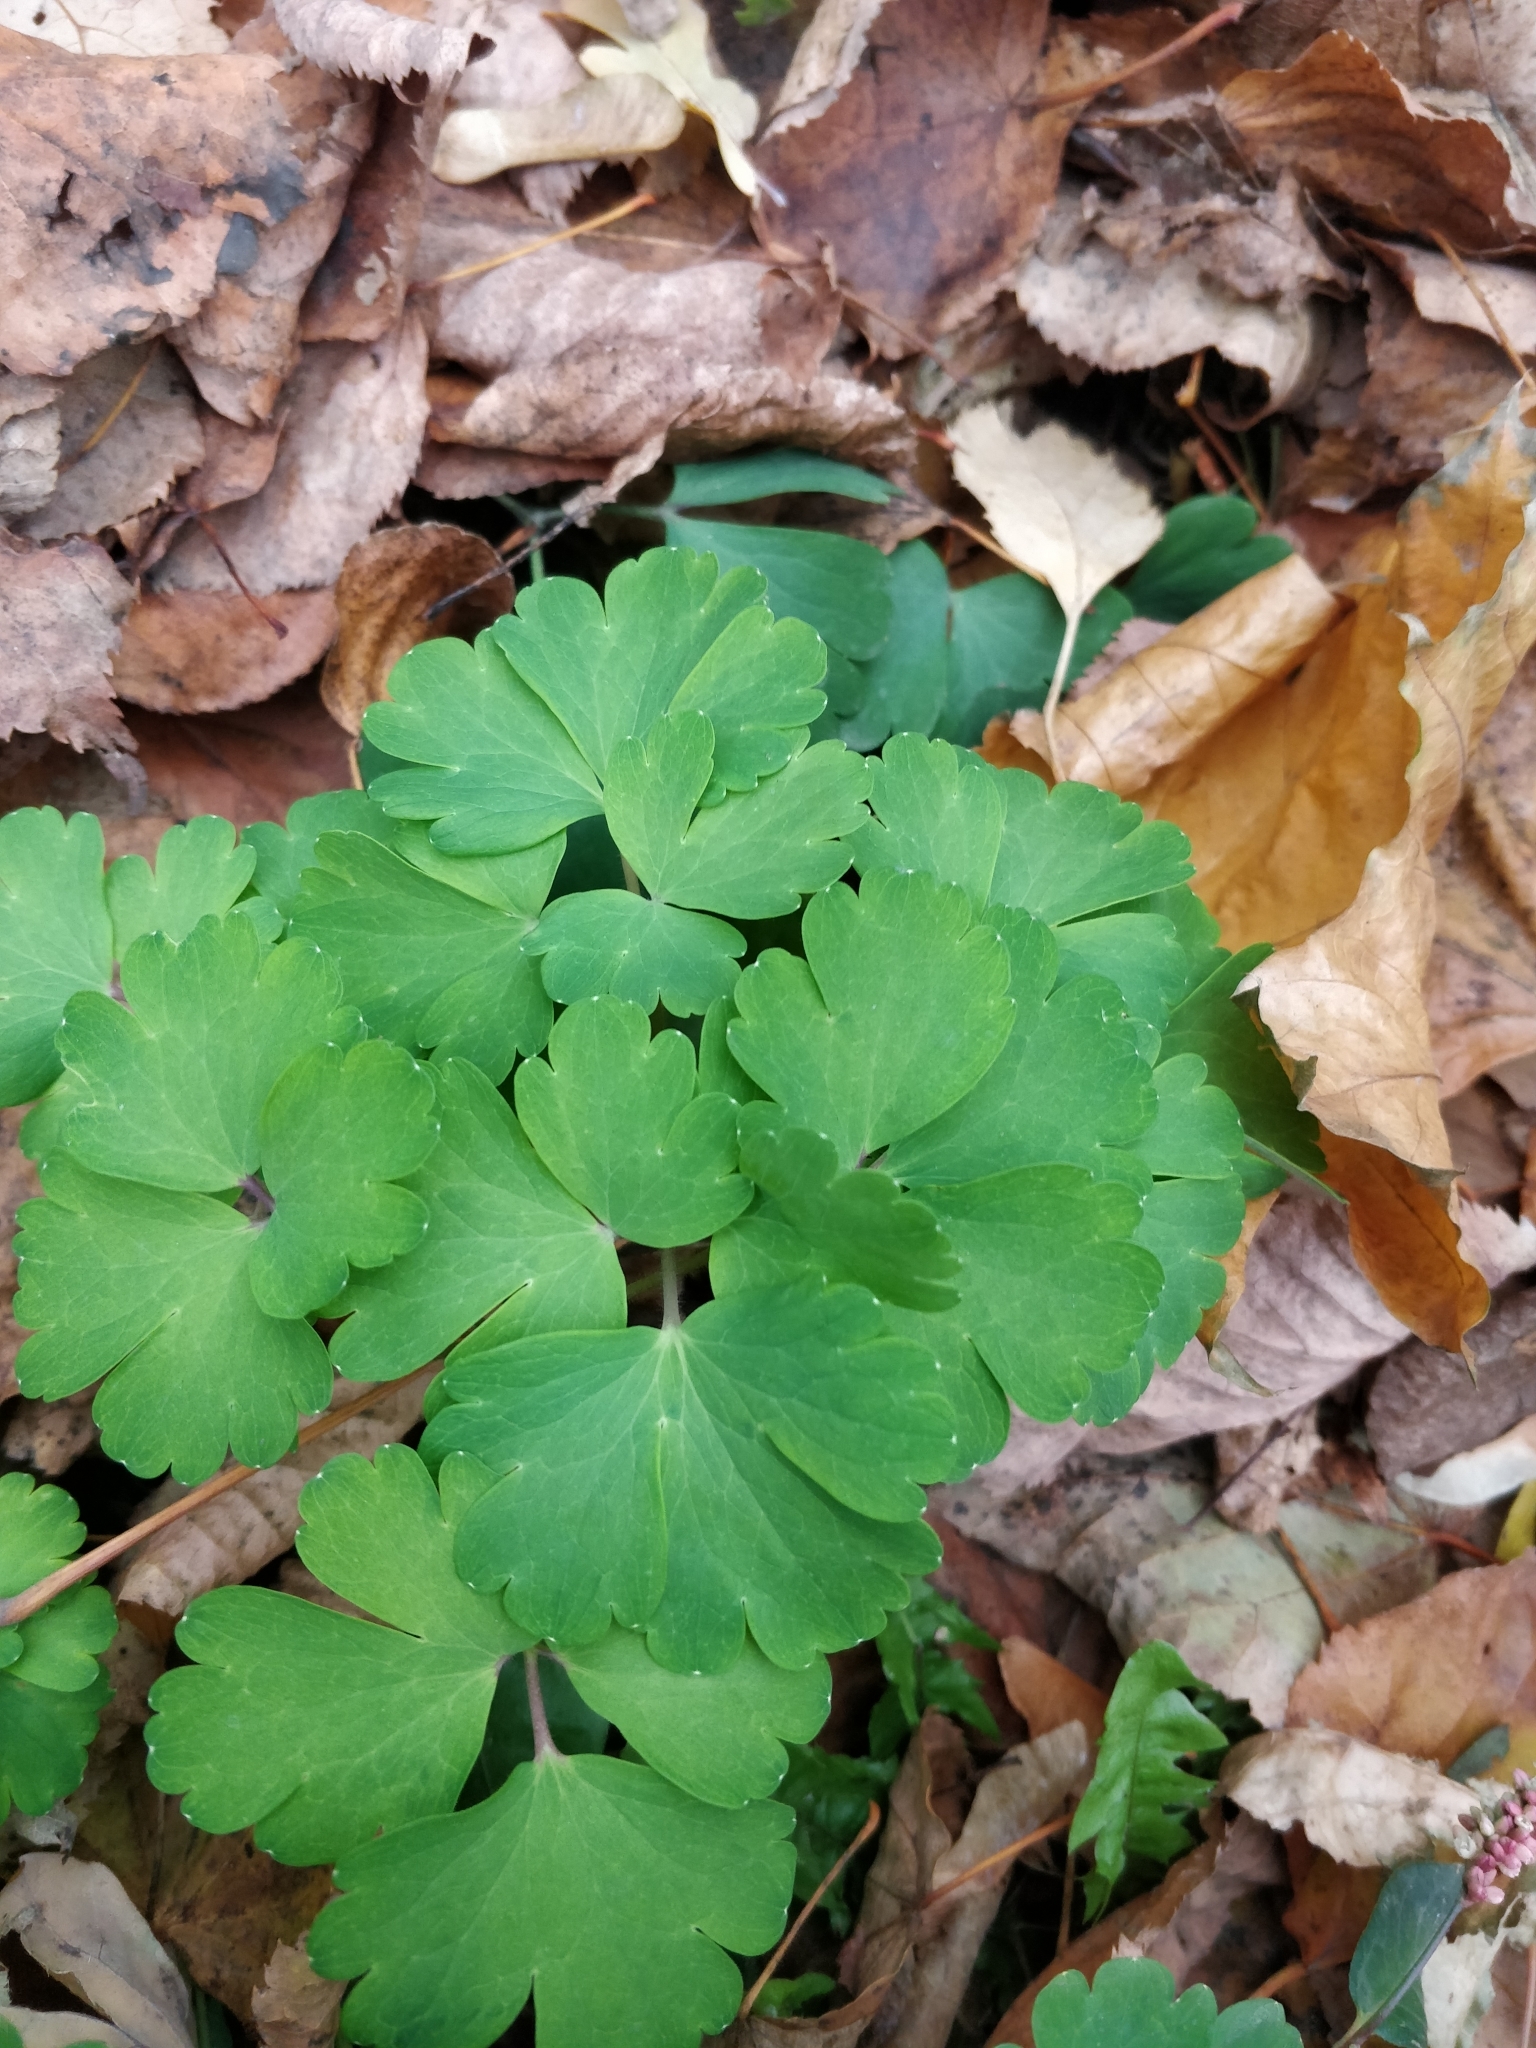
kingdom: Plantae
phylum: Tracheophyta
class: Magnoliopsida
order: Ranunculales
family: Ranunculaceae
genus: Aquilegia
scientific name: Aquilegia vulgaris
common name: Columbine
